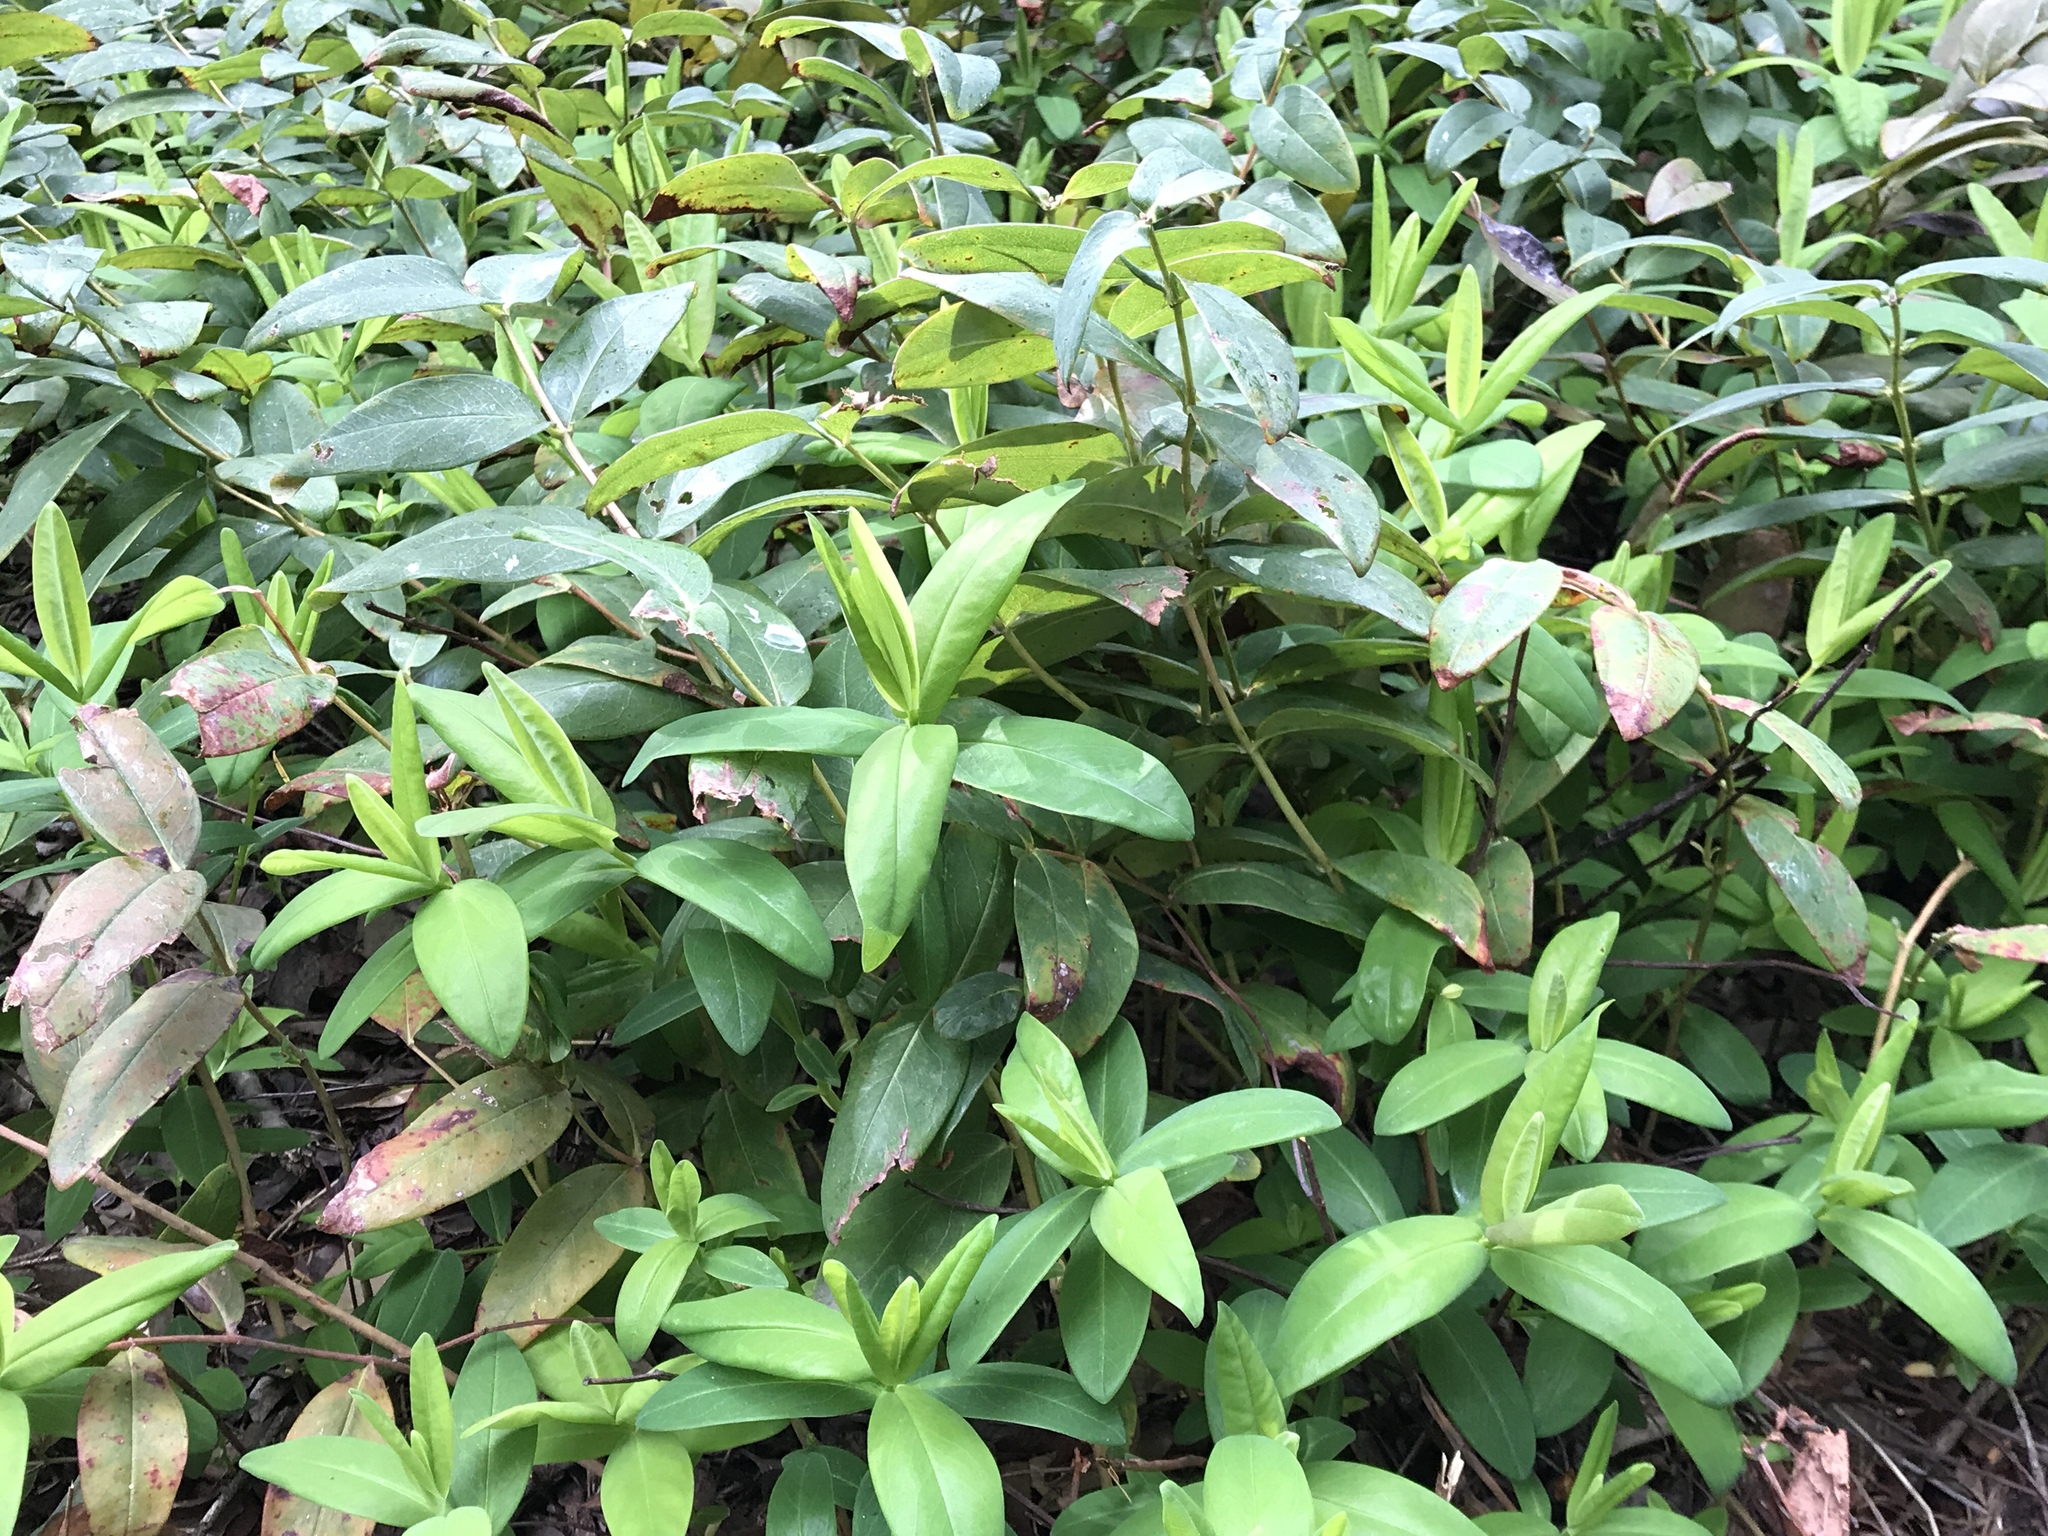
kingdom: Plantae
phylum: Tracheophyta
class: Magnoliopsida
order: Malpighiales
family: Hypericaceae
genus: Hypericum
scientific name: Hypericum calycinum
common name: Rose-of-sharon
